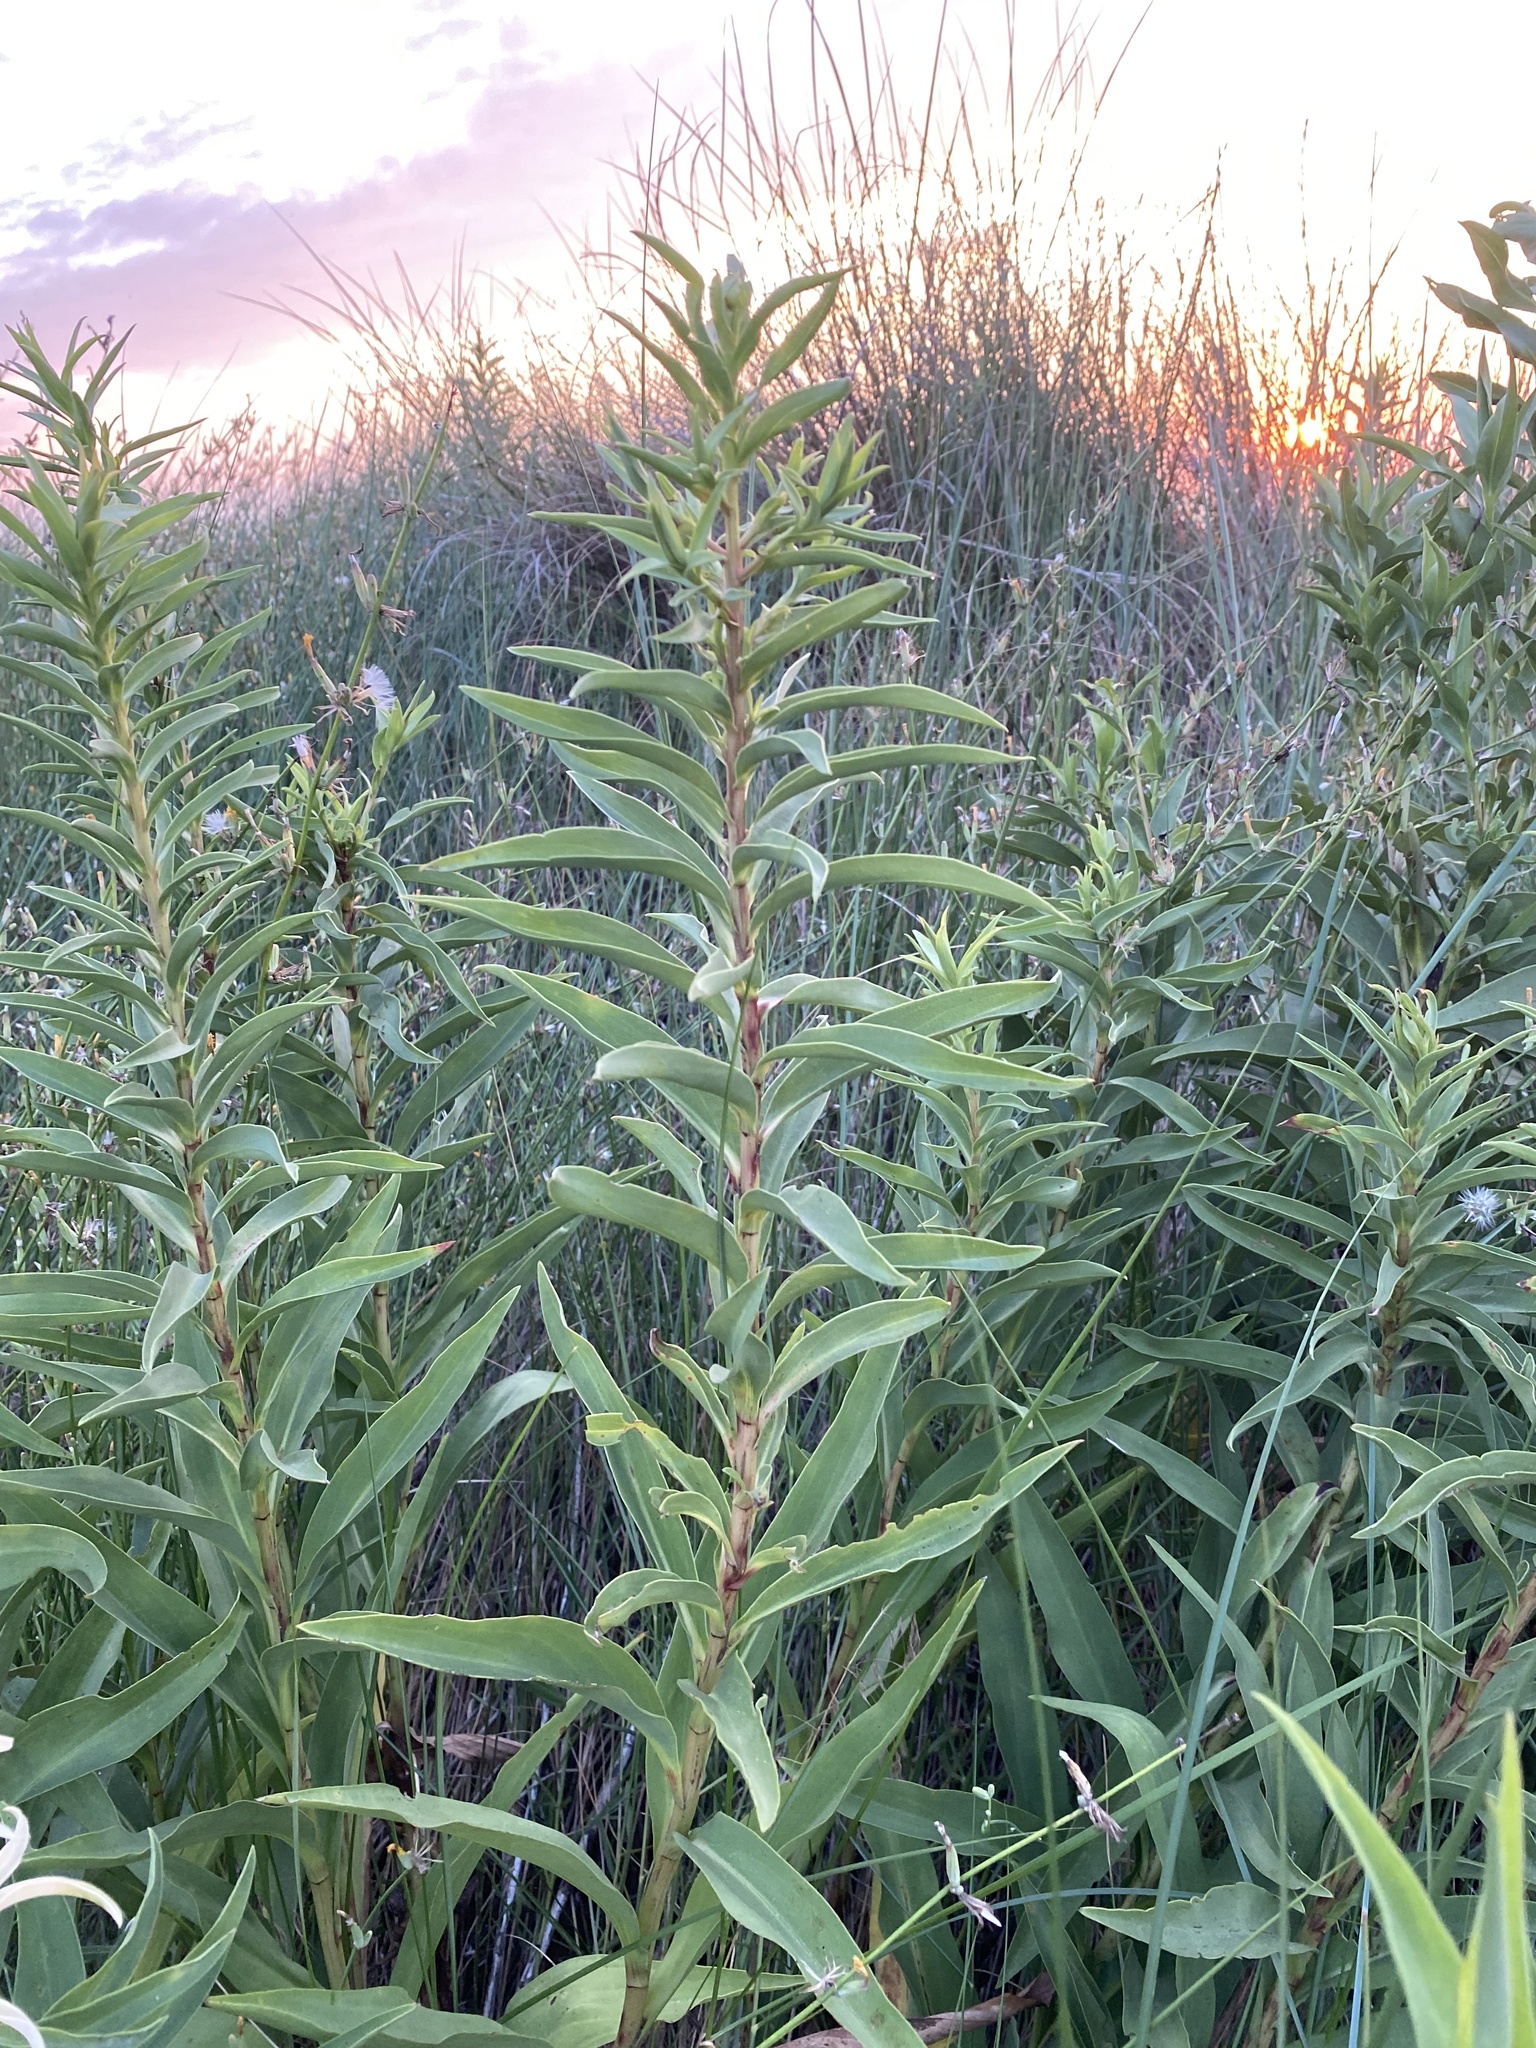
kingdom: Plantae
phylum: Tracheophyta
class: Magnoliopsida
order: Asterales
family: Asteraceae
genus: Solidago
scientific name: Solidago sempervirens
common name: Salt-marsh goldenrod
